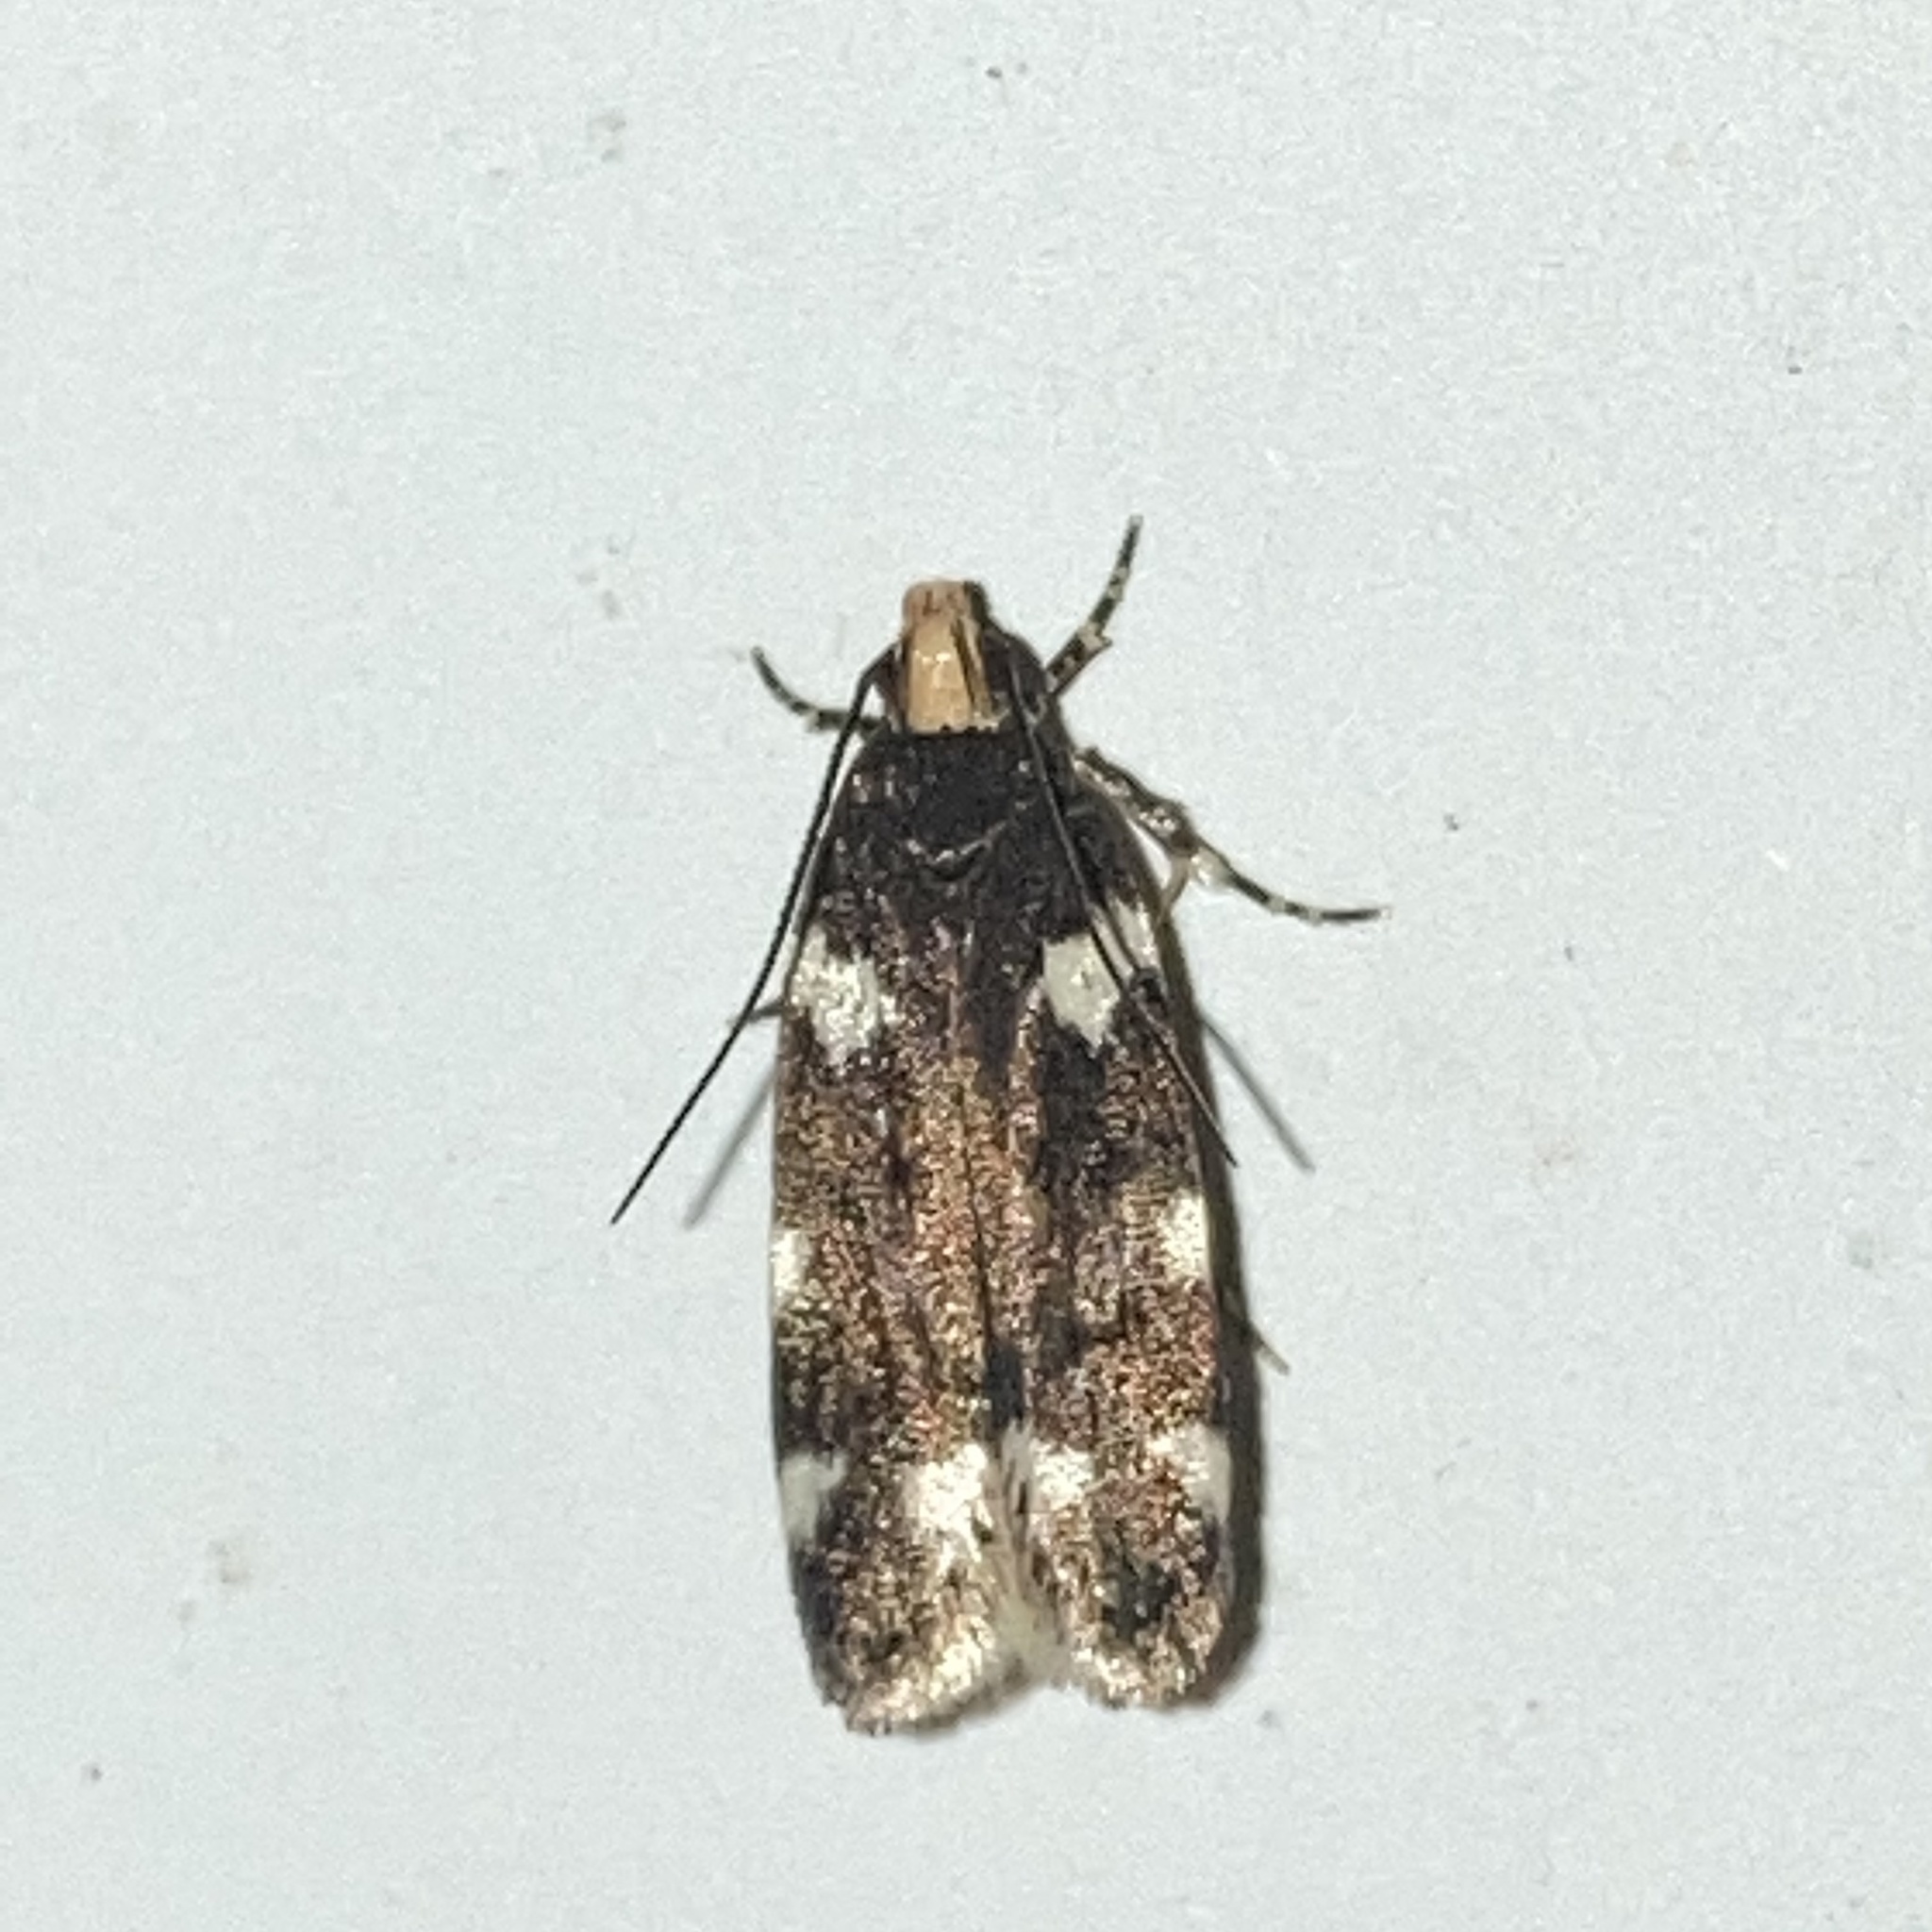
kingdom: Animalia
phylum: Arthropoda
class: Insecta
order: Lepidoptera
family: Gelechiidae
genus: Fascista
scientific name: Fascista cercerisella
